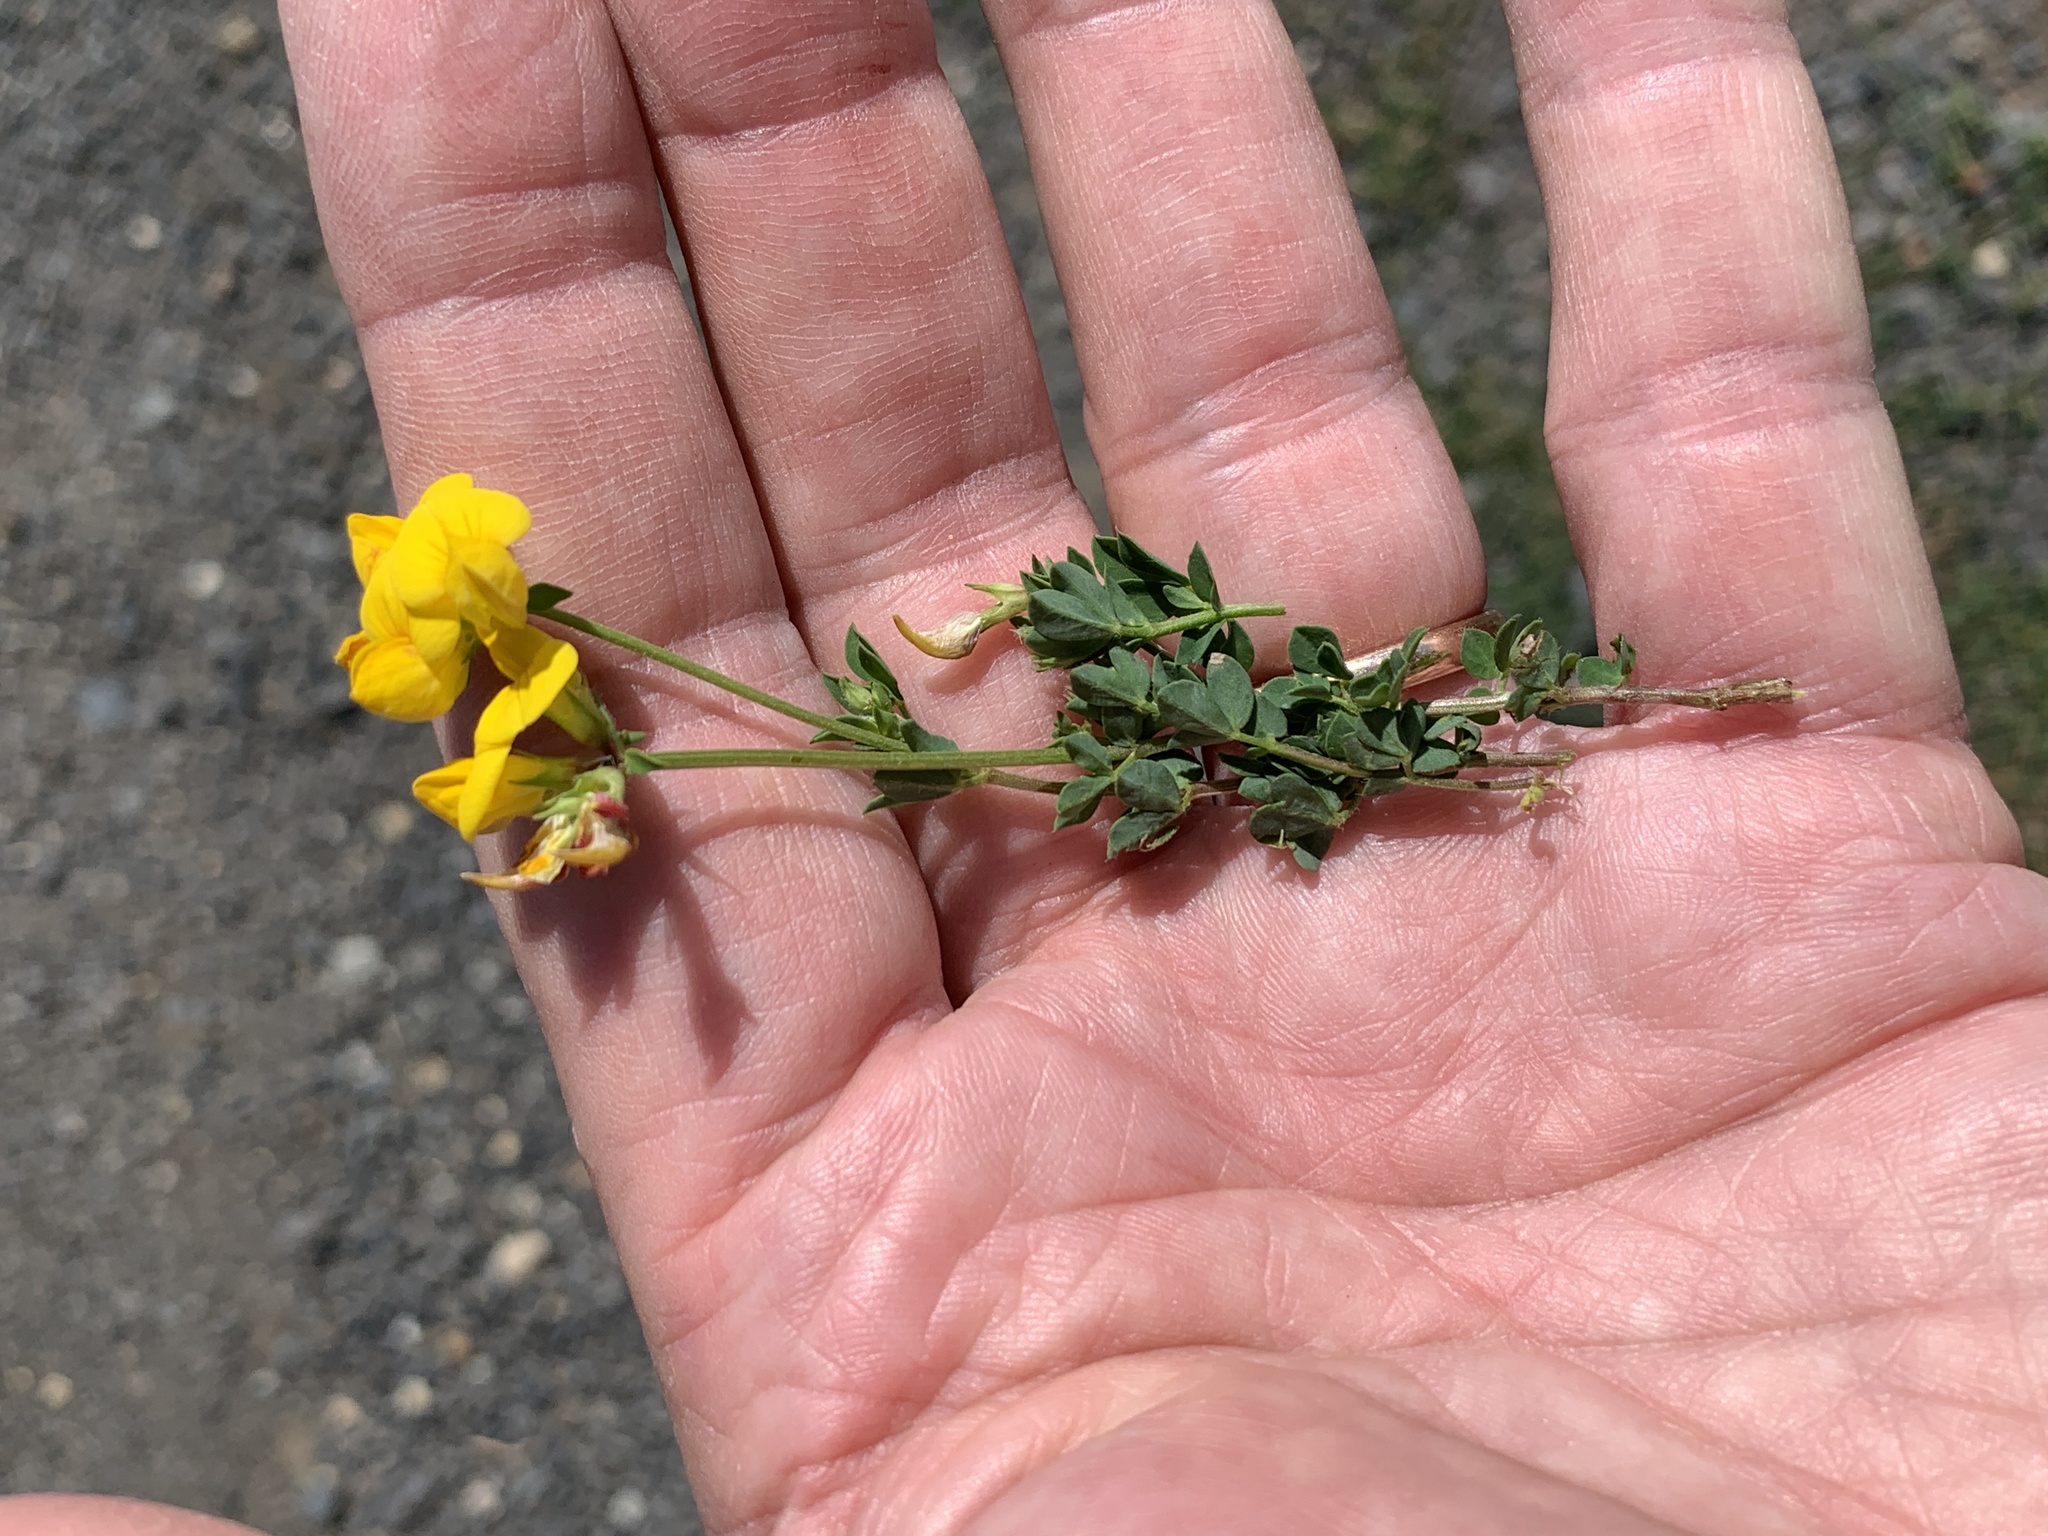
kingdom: Plantae
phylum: Tracheophyta
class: Magnoliopsida
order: Fabales
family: Fabaceae
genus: Lotus
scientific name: Lotus corniculatus
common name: Common bird's-foot-trefoil
